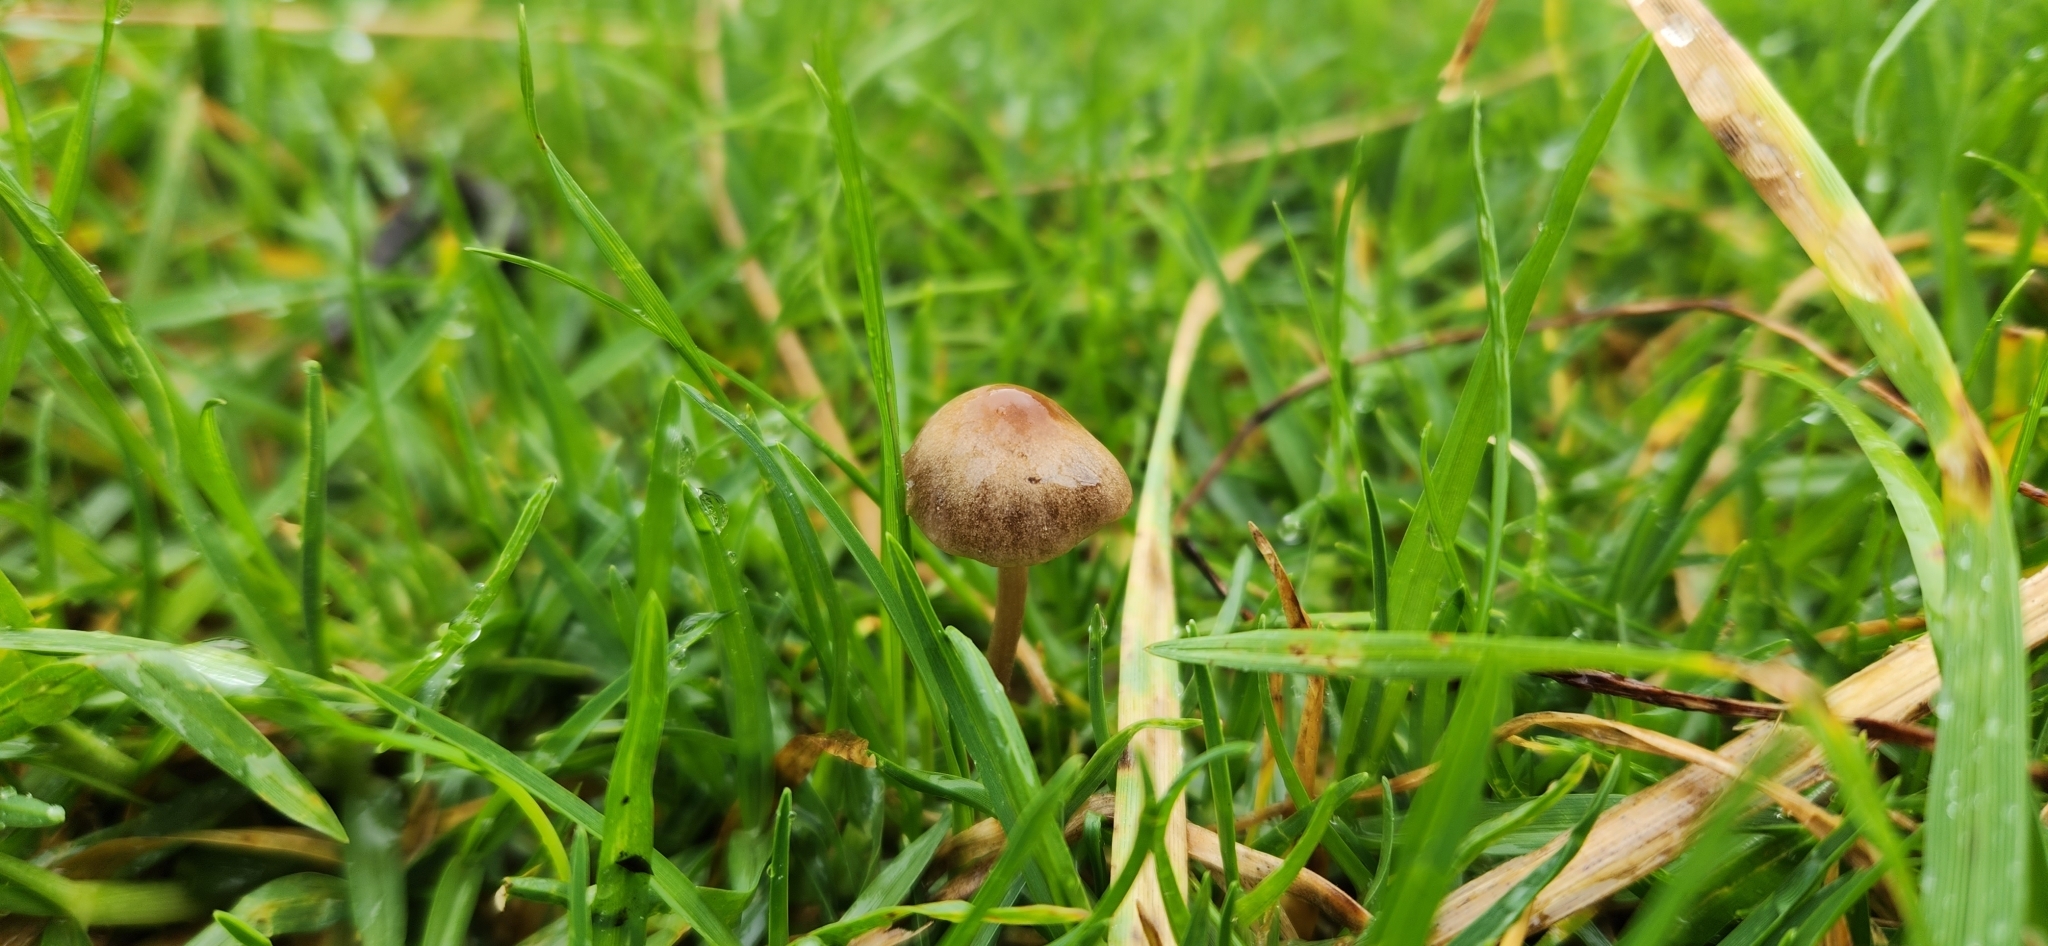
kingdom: Fungi
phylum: Basidiomycota
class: Agaricomycetes
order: Agaricales
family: Bolbitiaceae
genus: Panaeolina
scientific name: Panaeolina foenisecii
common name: Brown hay cap
